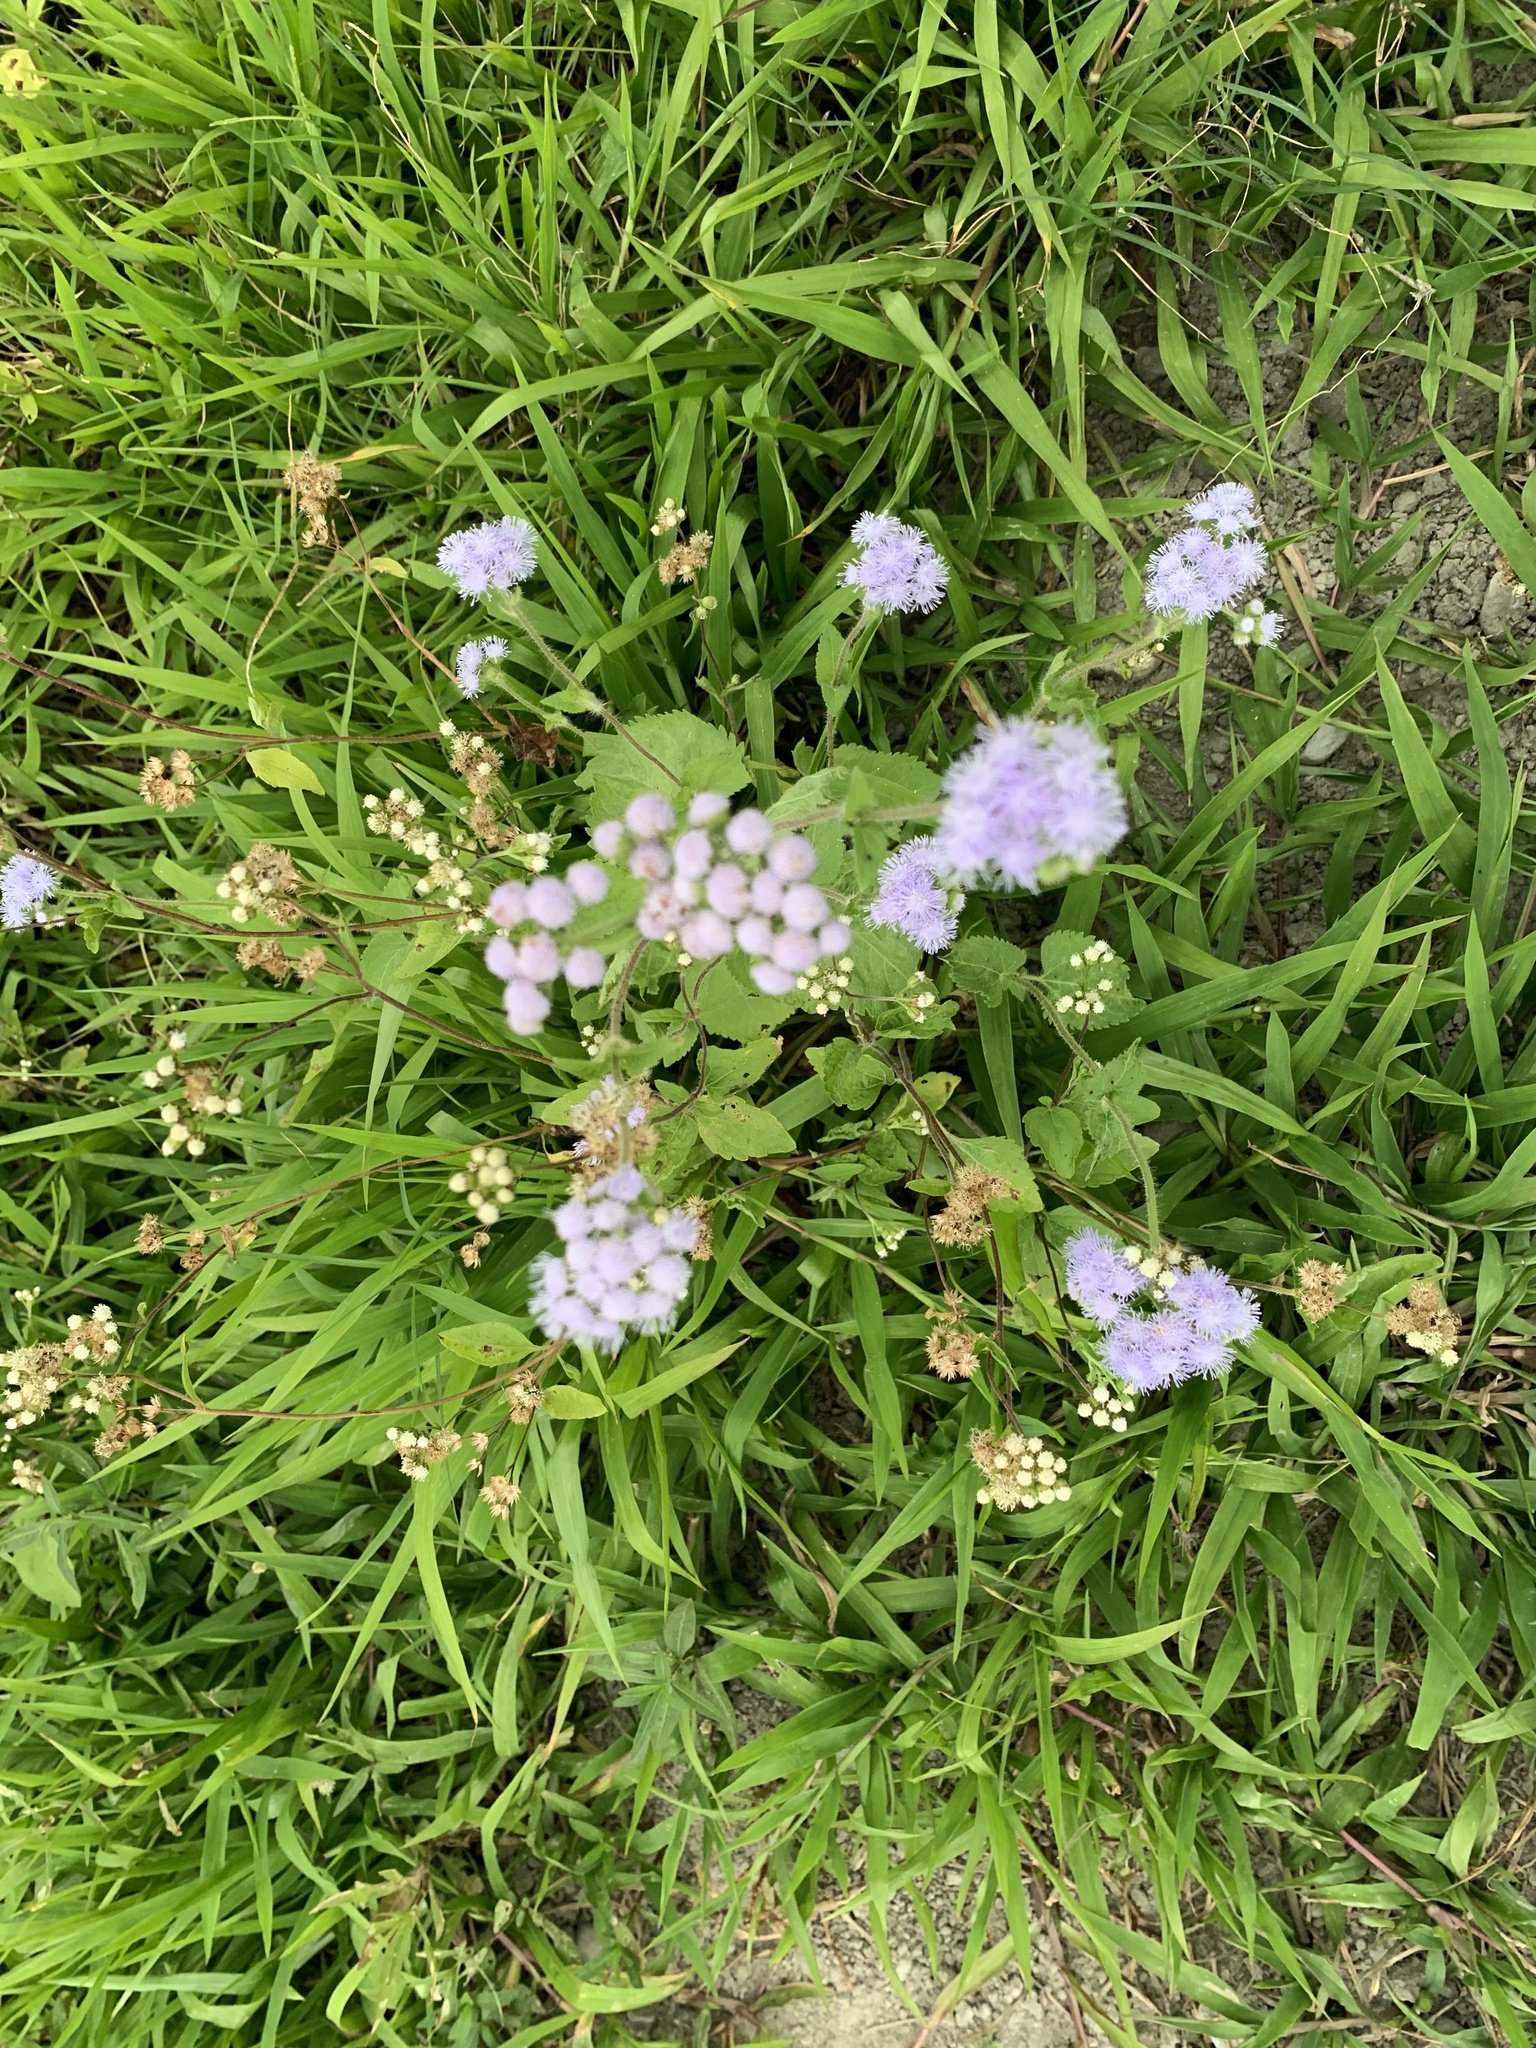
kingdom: Plantae
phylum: Tracheophyta
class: Magnoliopsida
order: Asterales
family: Asteraceae
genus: Ageratum
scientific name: Ageratum houstonianum
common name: Bluemink
